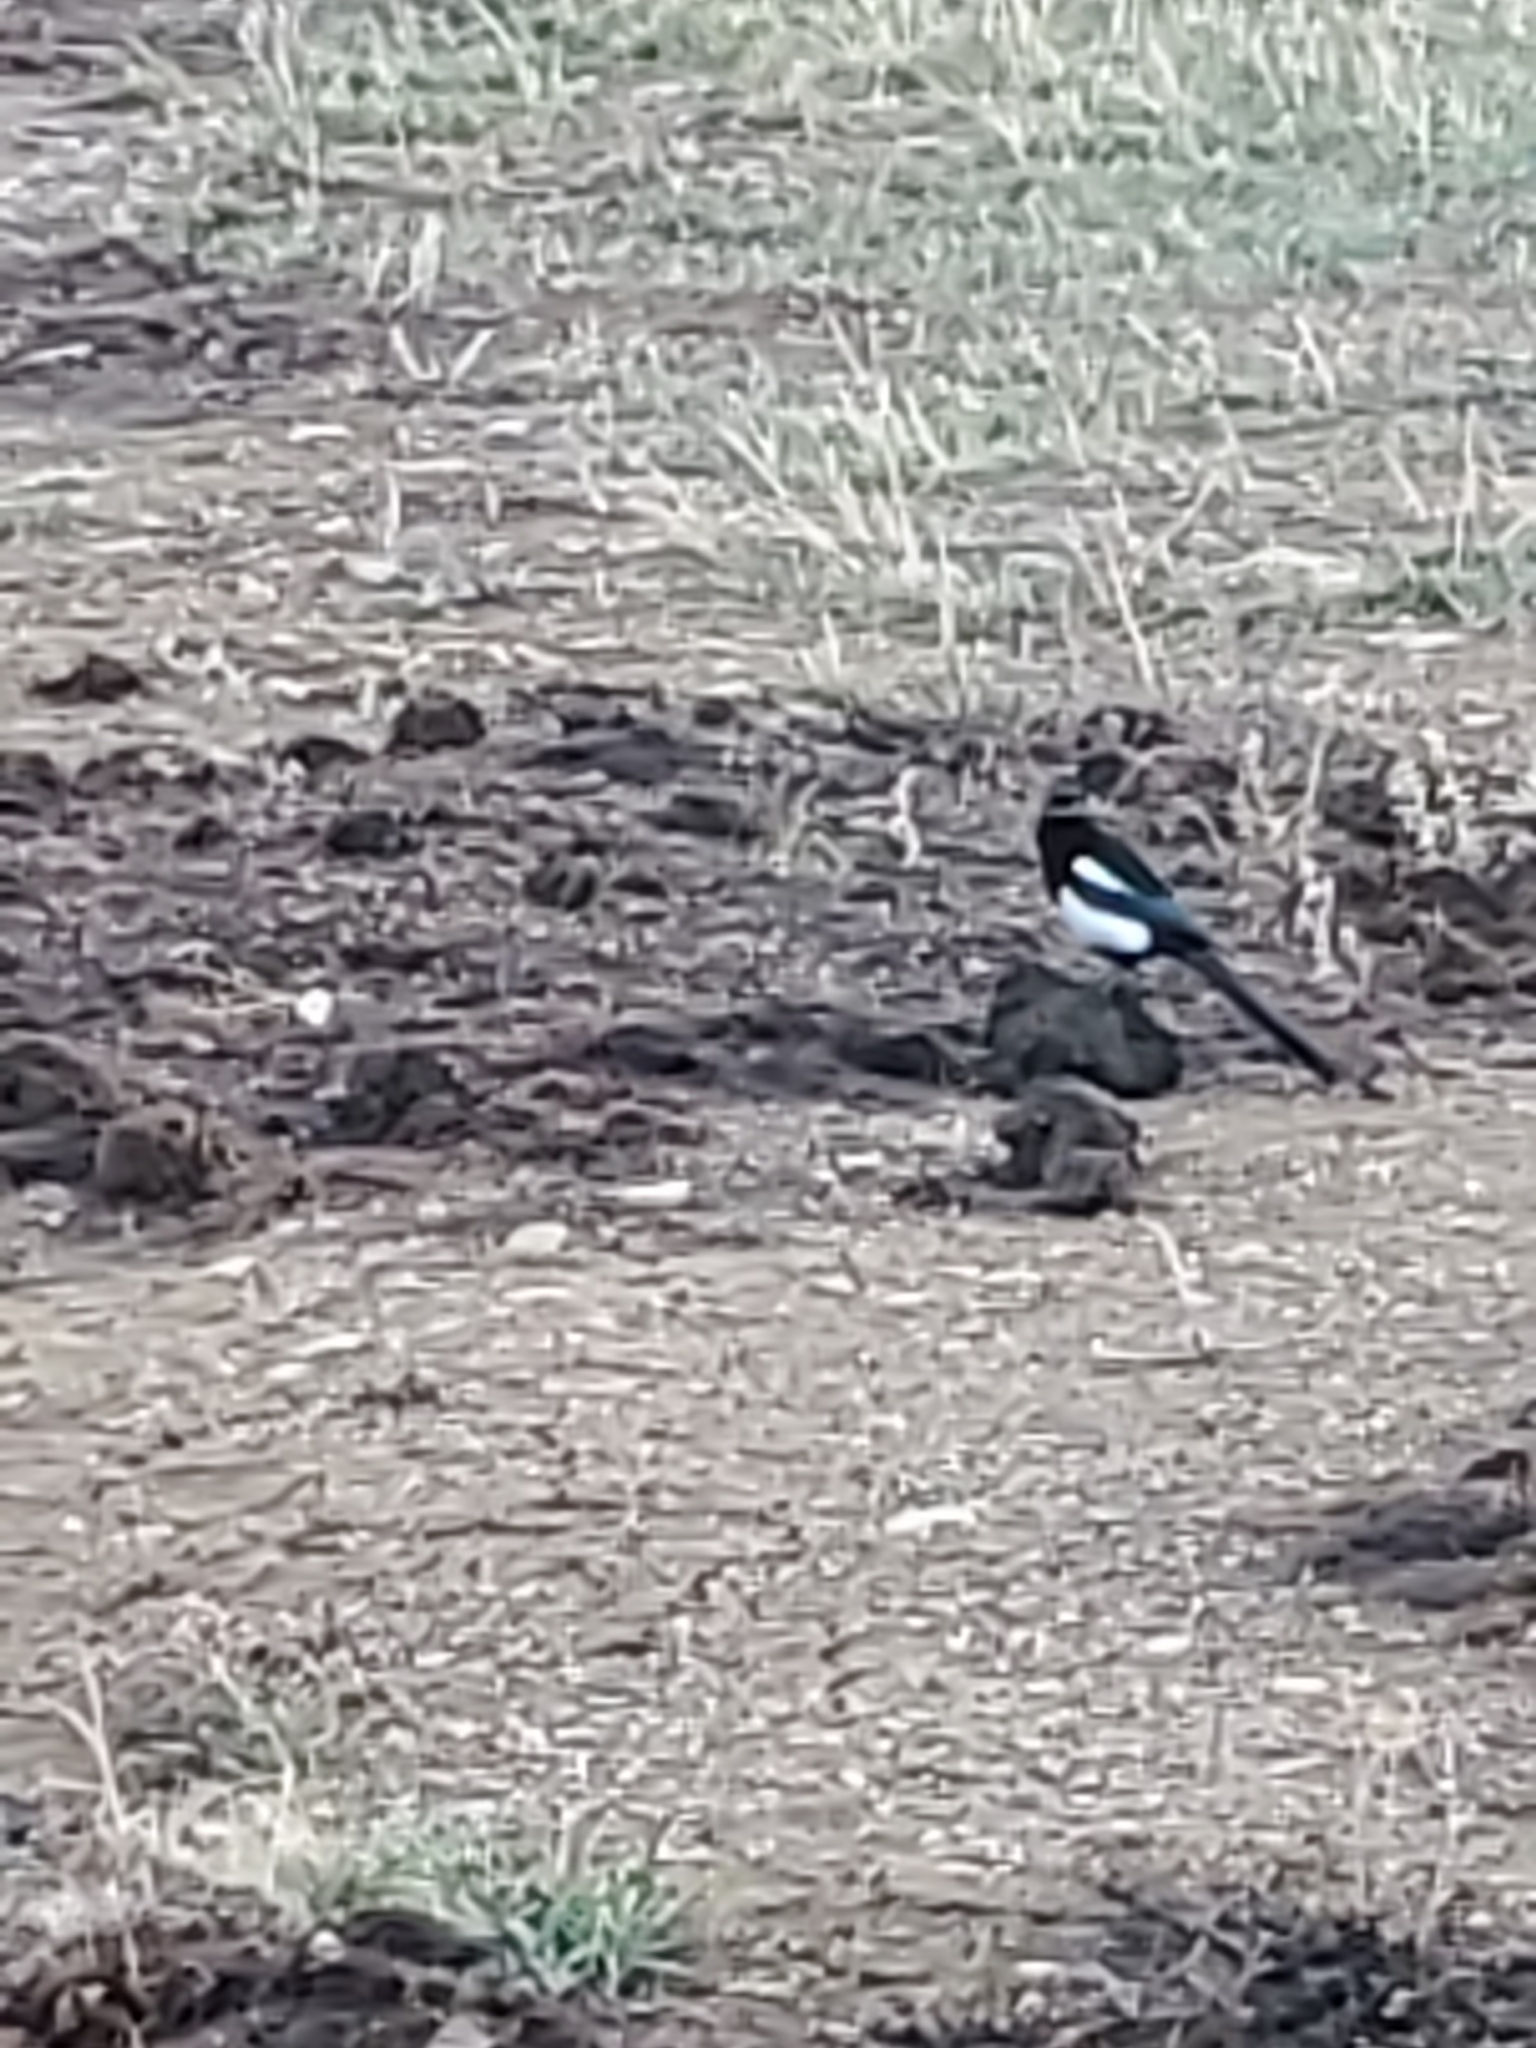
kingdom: Animalia
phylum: Chordata
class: Aves
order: Passeriformes
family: Corvidae
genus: Pica
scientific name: Pica hudsonia
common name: Black-billed magpie
